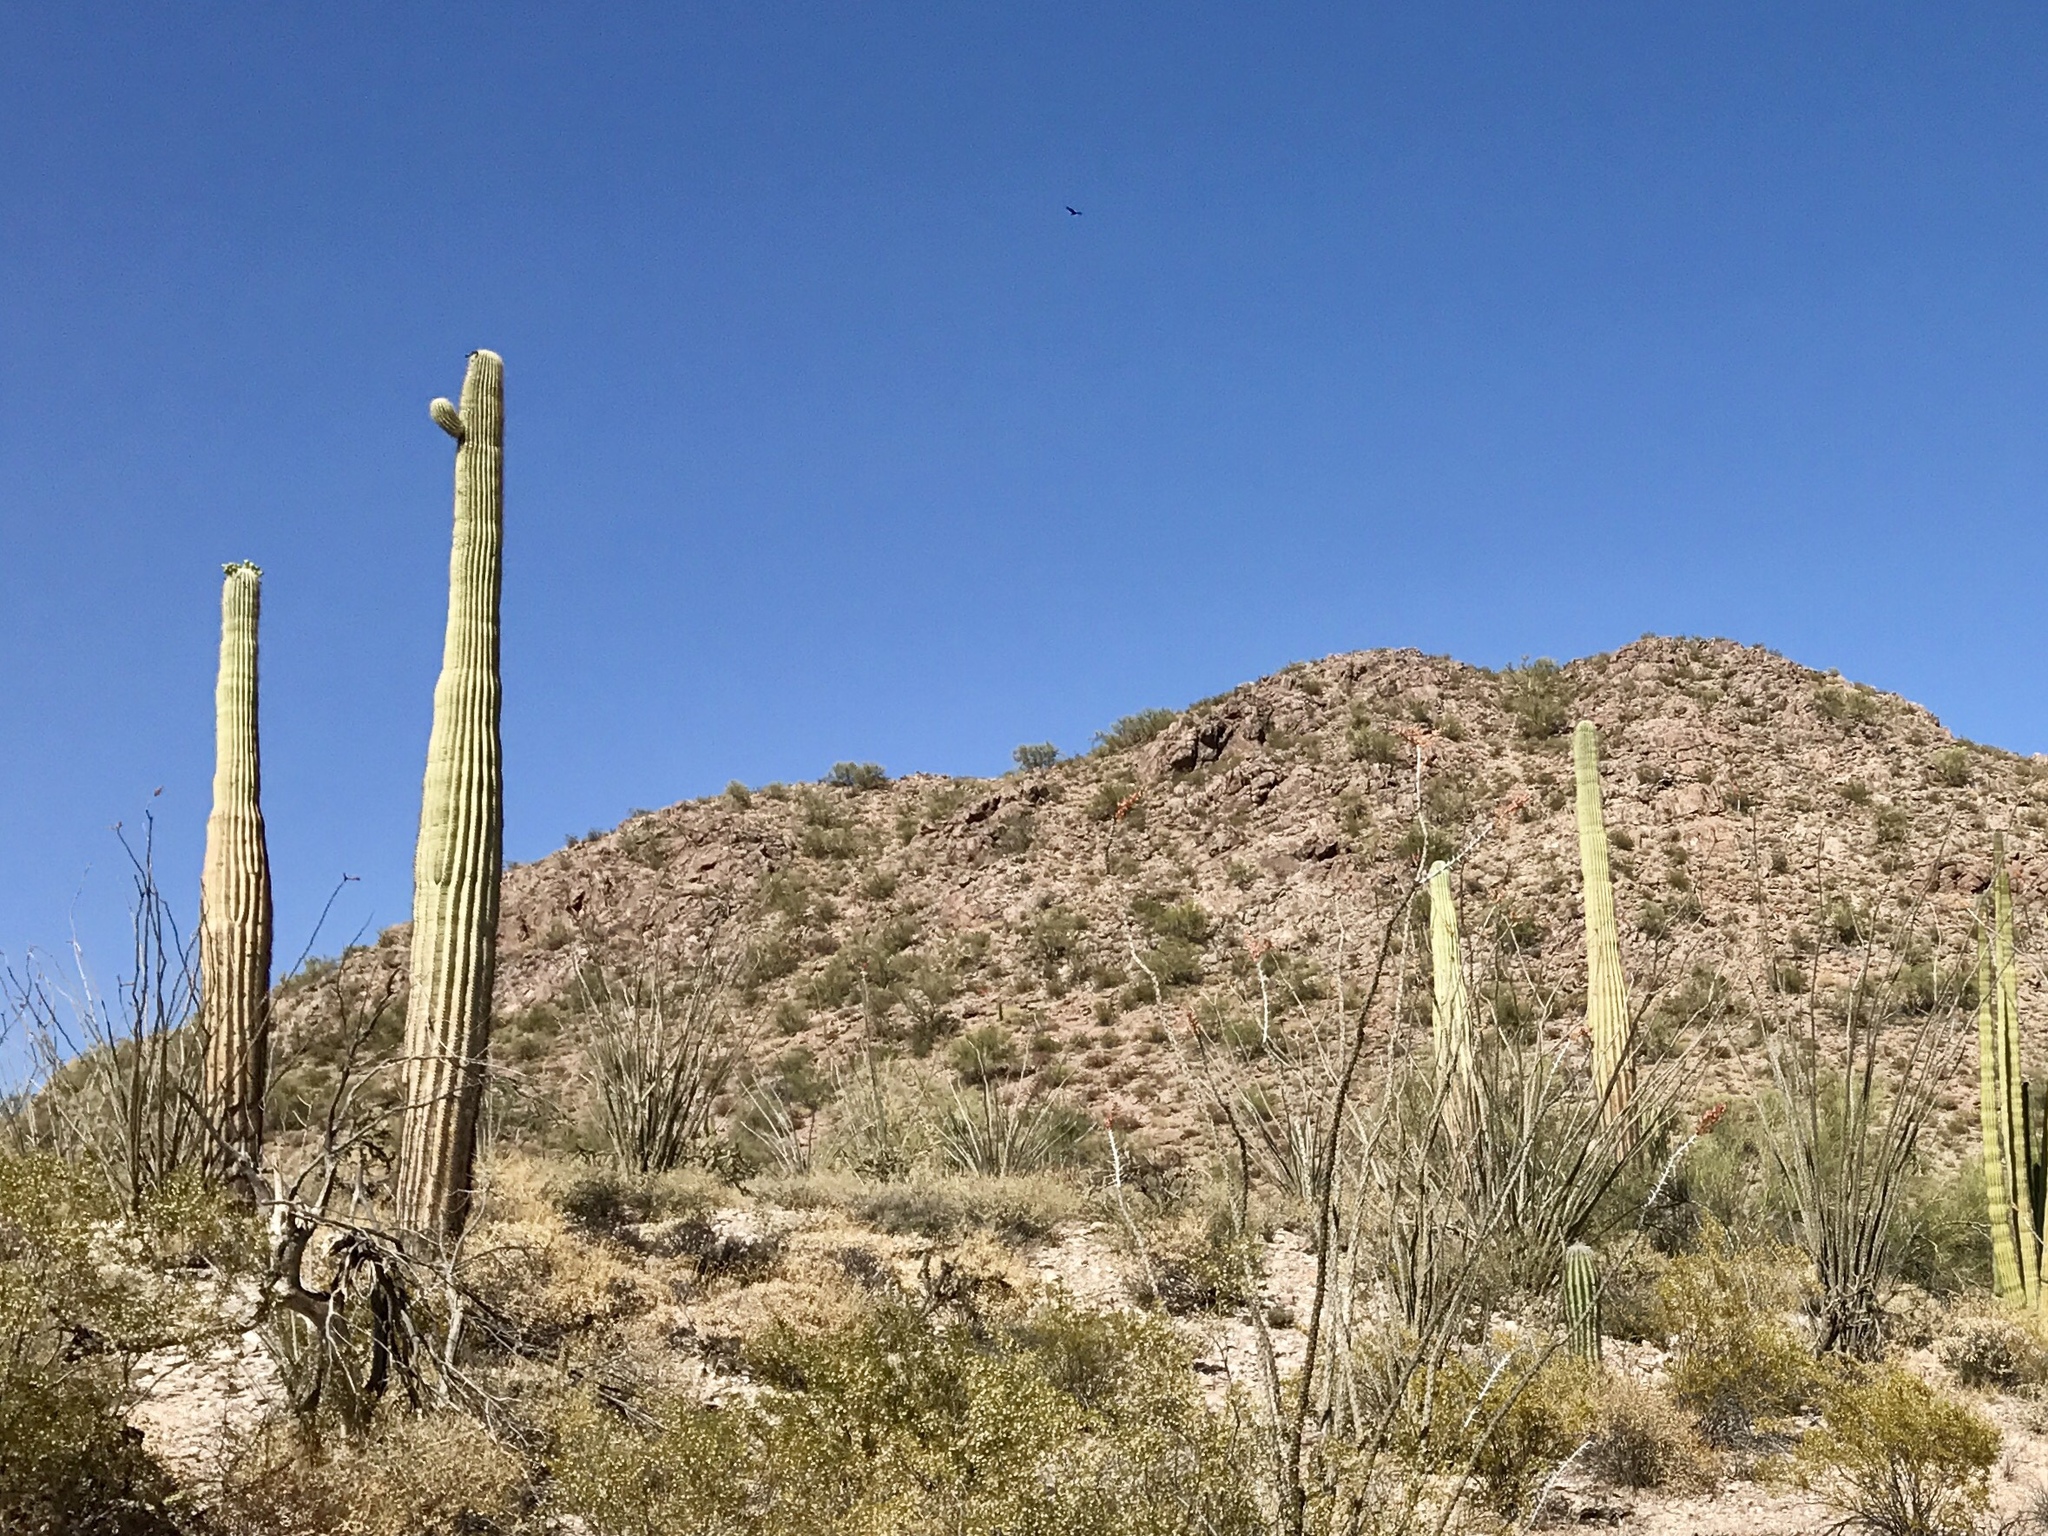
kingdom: Plantae
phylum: Tracheophyta
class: Magnoliopsida
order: Caryophyllales
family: Cactaceae
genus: Carnegiea
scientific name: Carnegiea gigantea
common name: Saguaro
